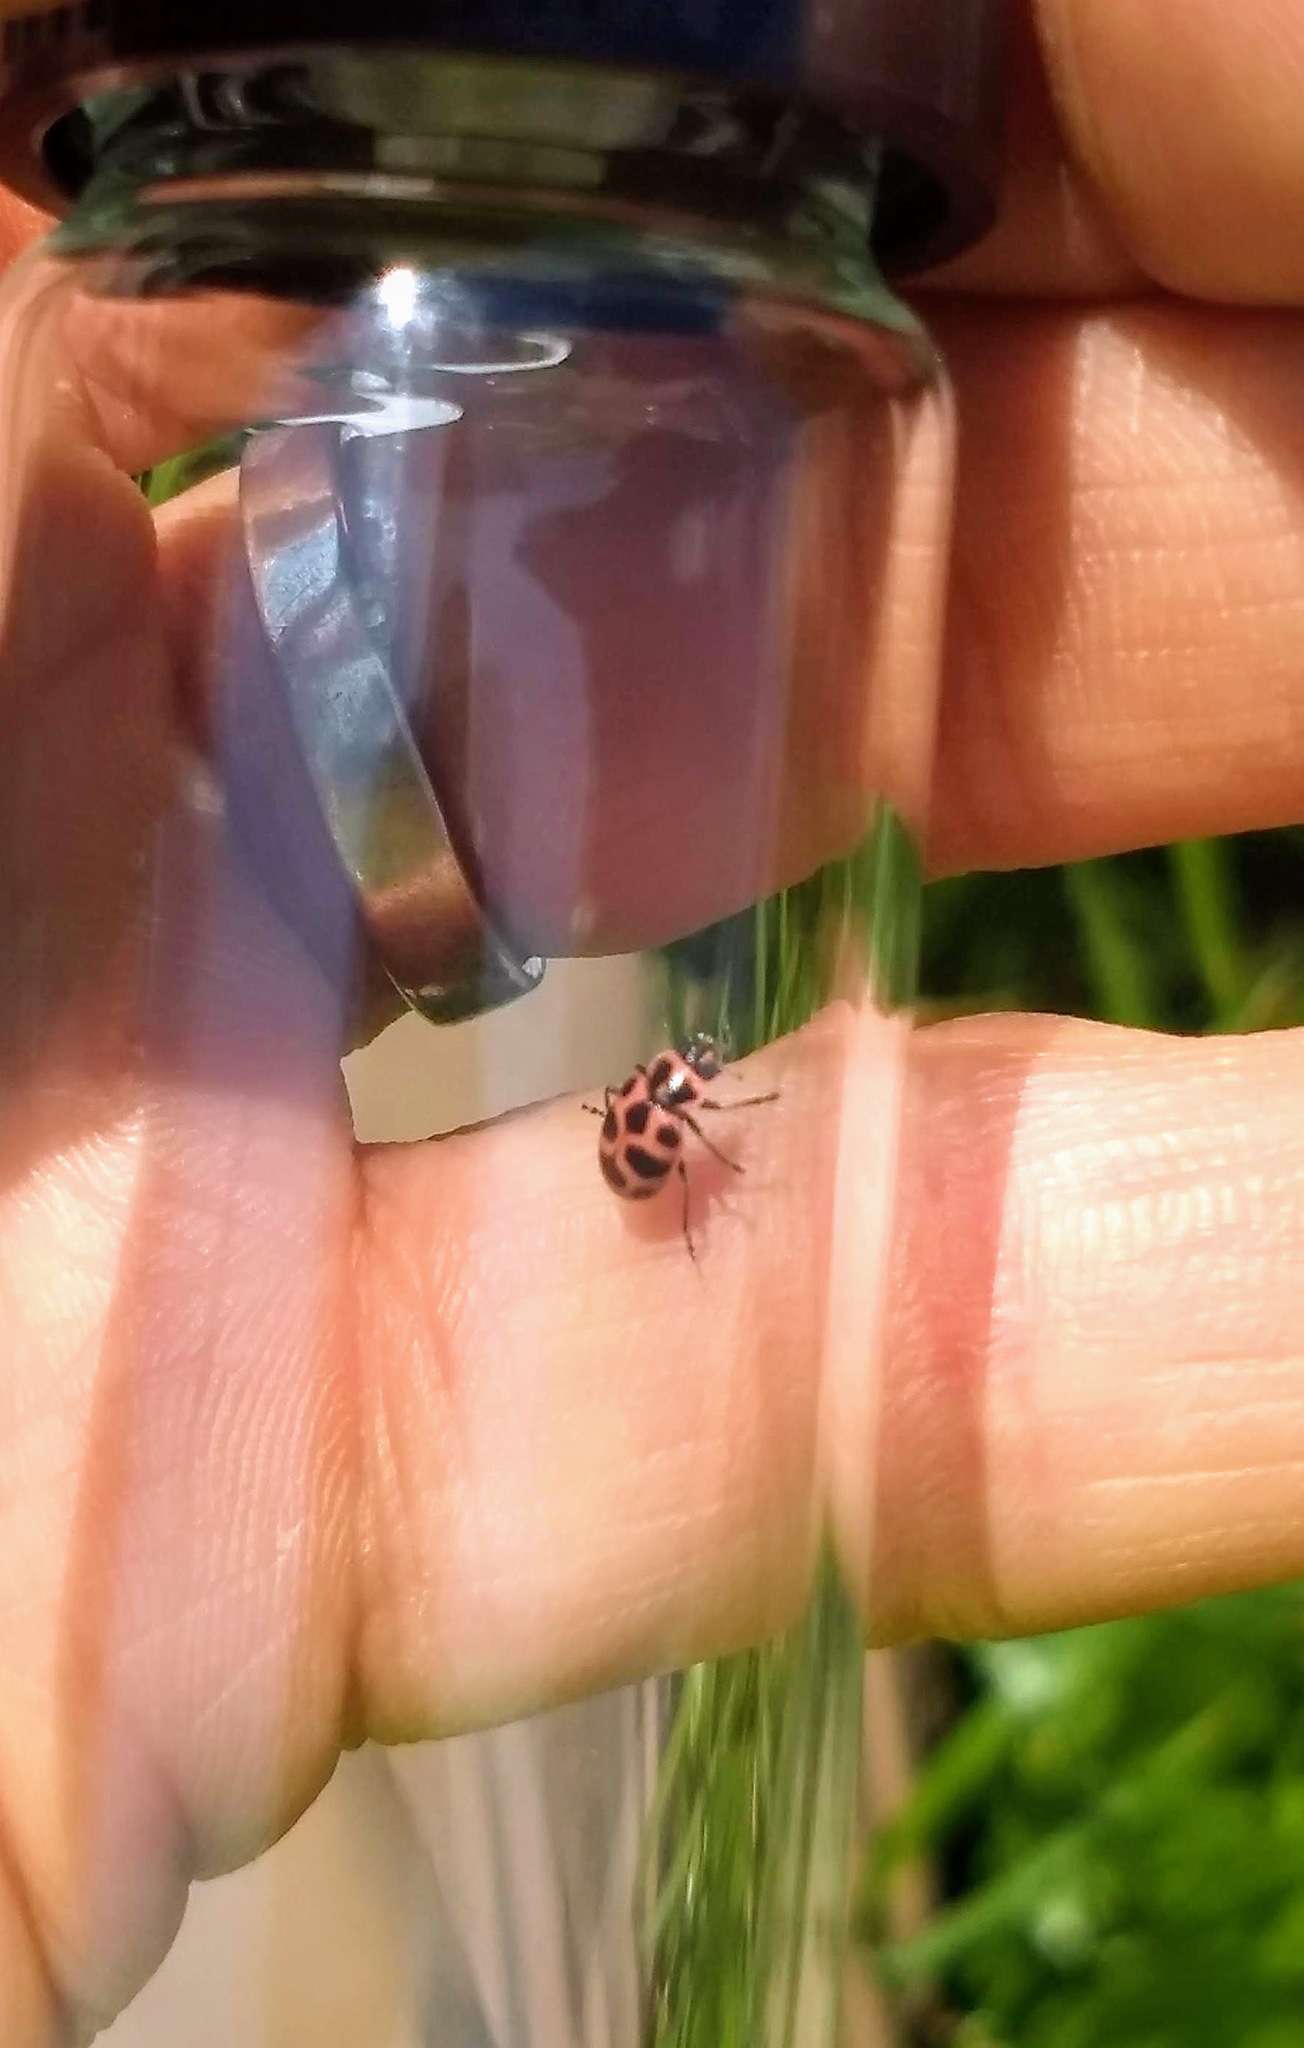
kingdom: Animalia
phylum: Arthropoda
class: Insecta
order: Coleoptera
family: Coccinellidae
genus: Coleomegilla
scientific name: Coleomegilla maculata
